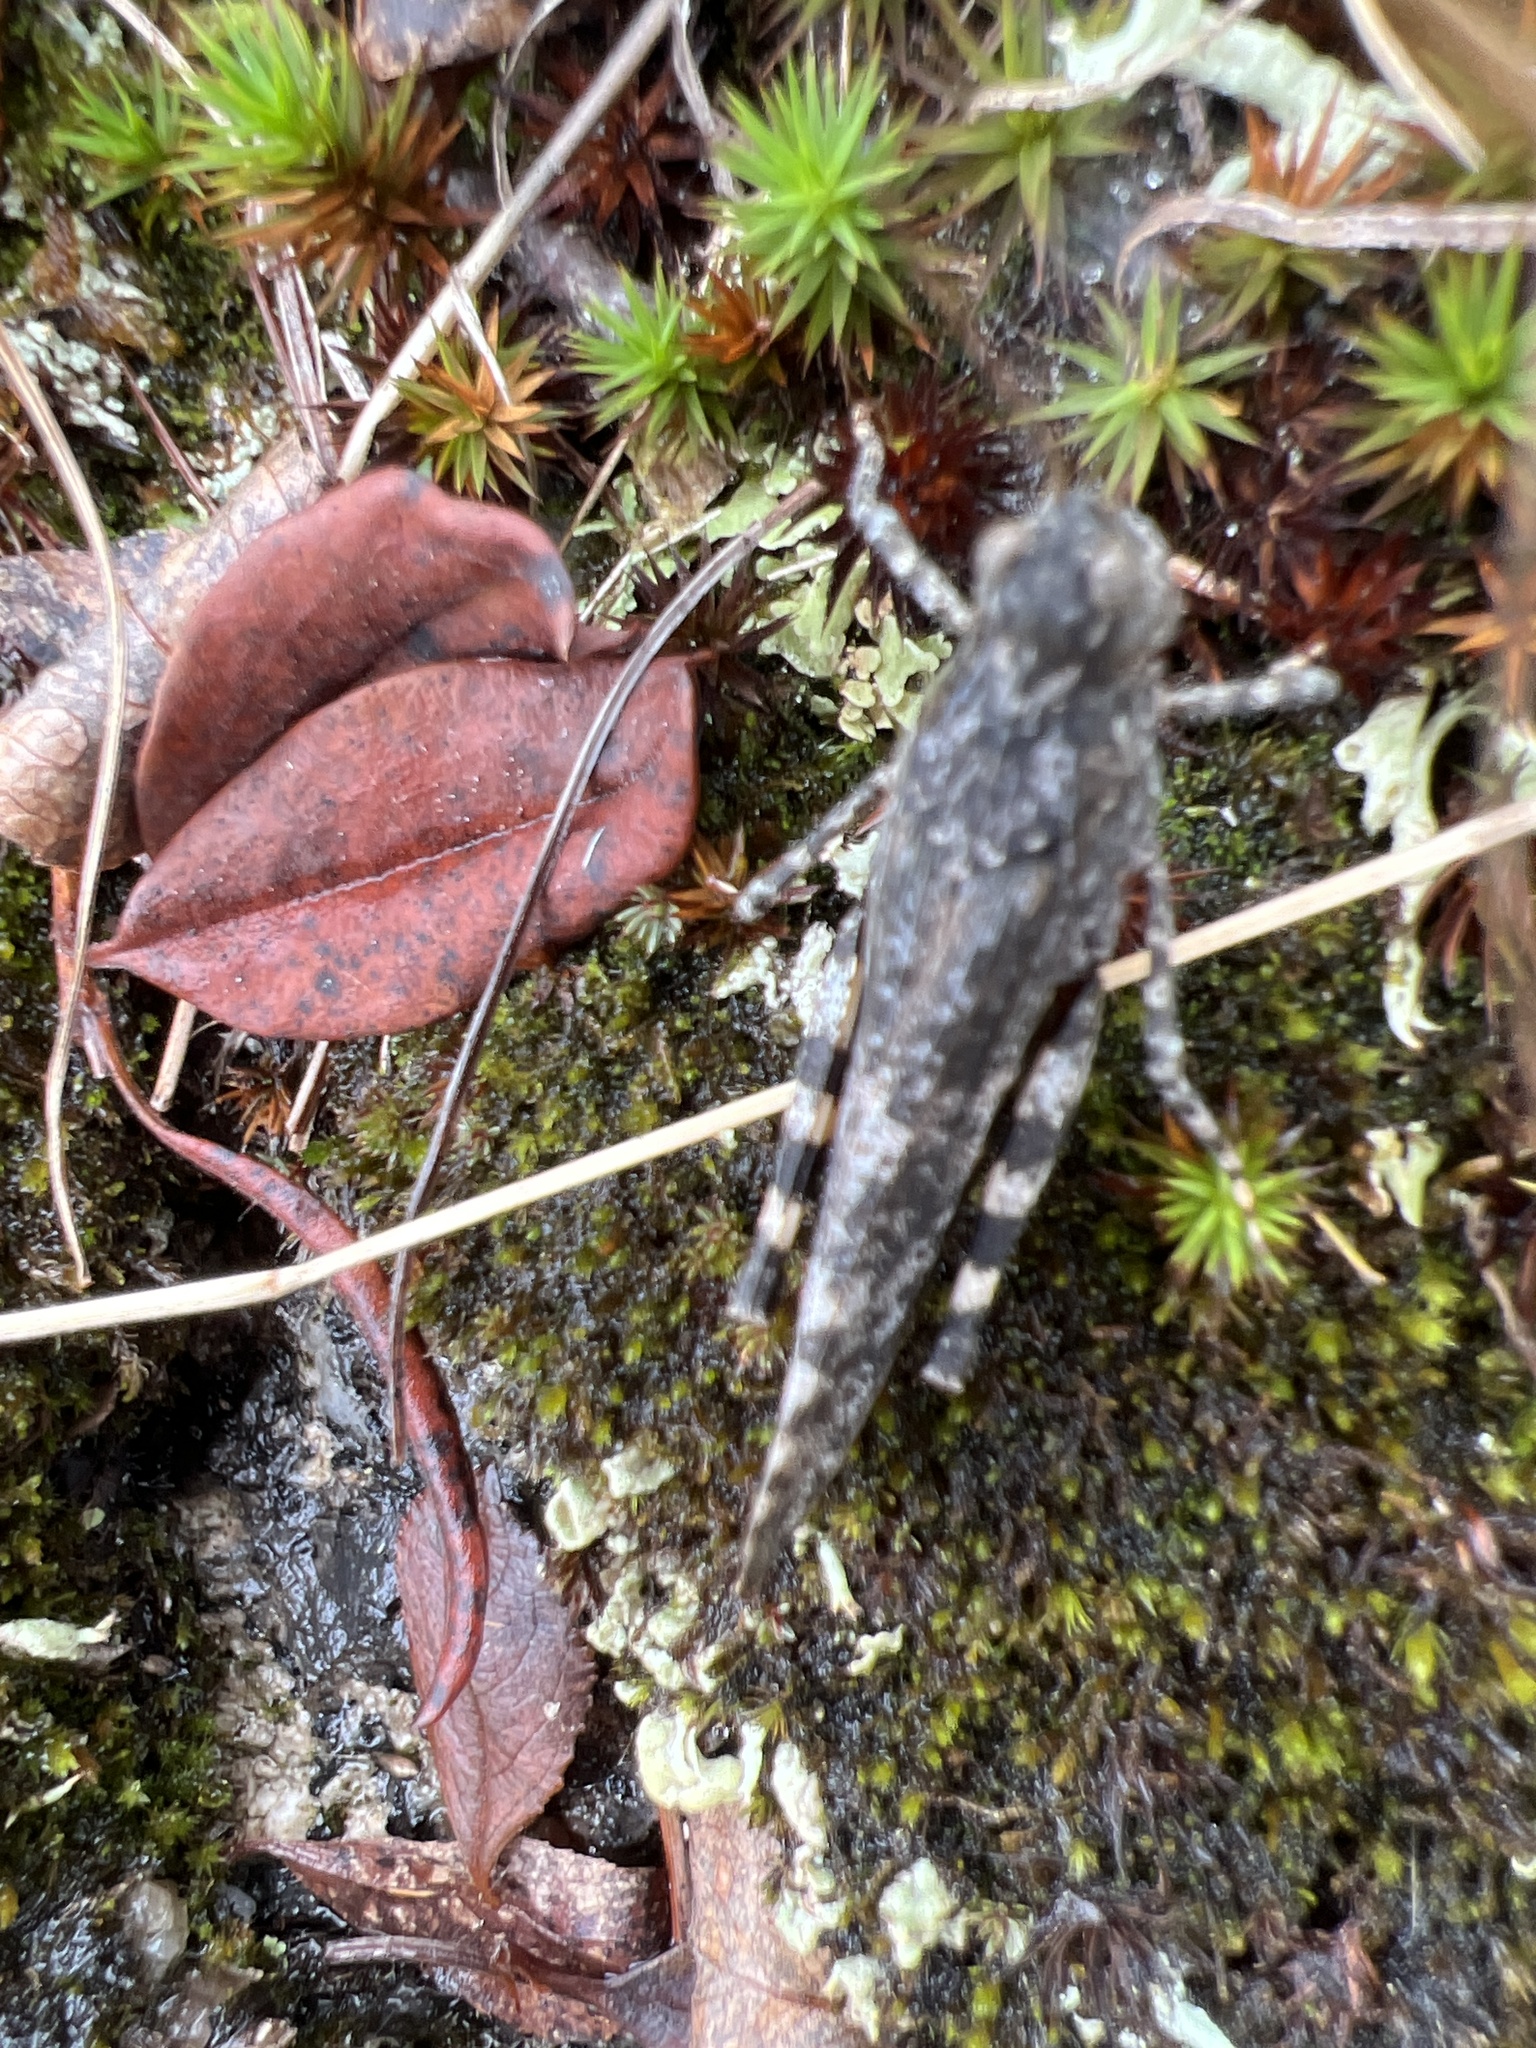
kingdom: Animalia
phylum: Arthropoda
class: Insecta
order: Orthoptera
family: Acrididae
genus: Trimerotropis
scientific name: Trimerotropis verruculata
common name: Crackling forest grasshopper
